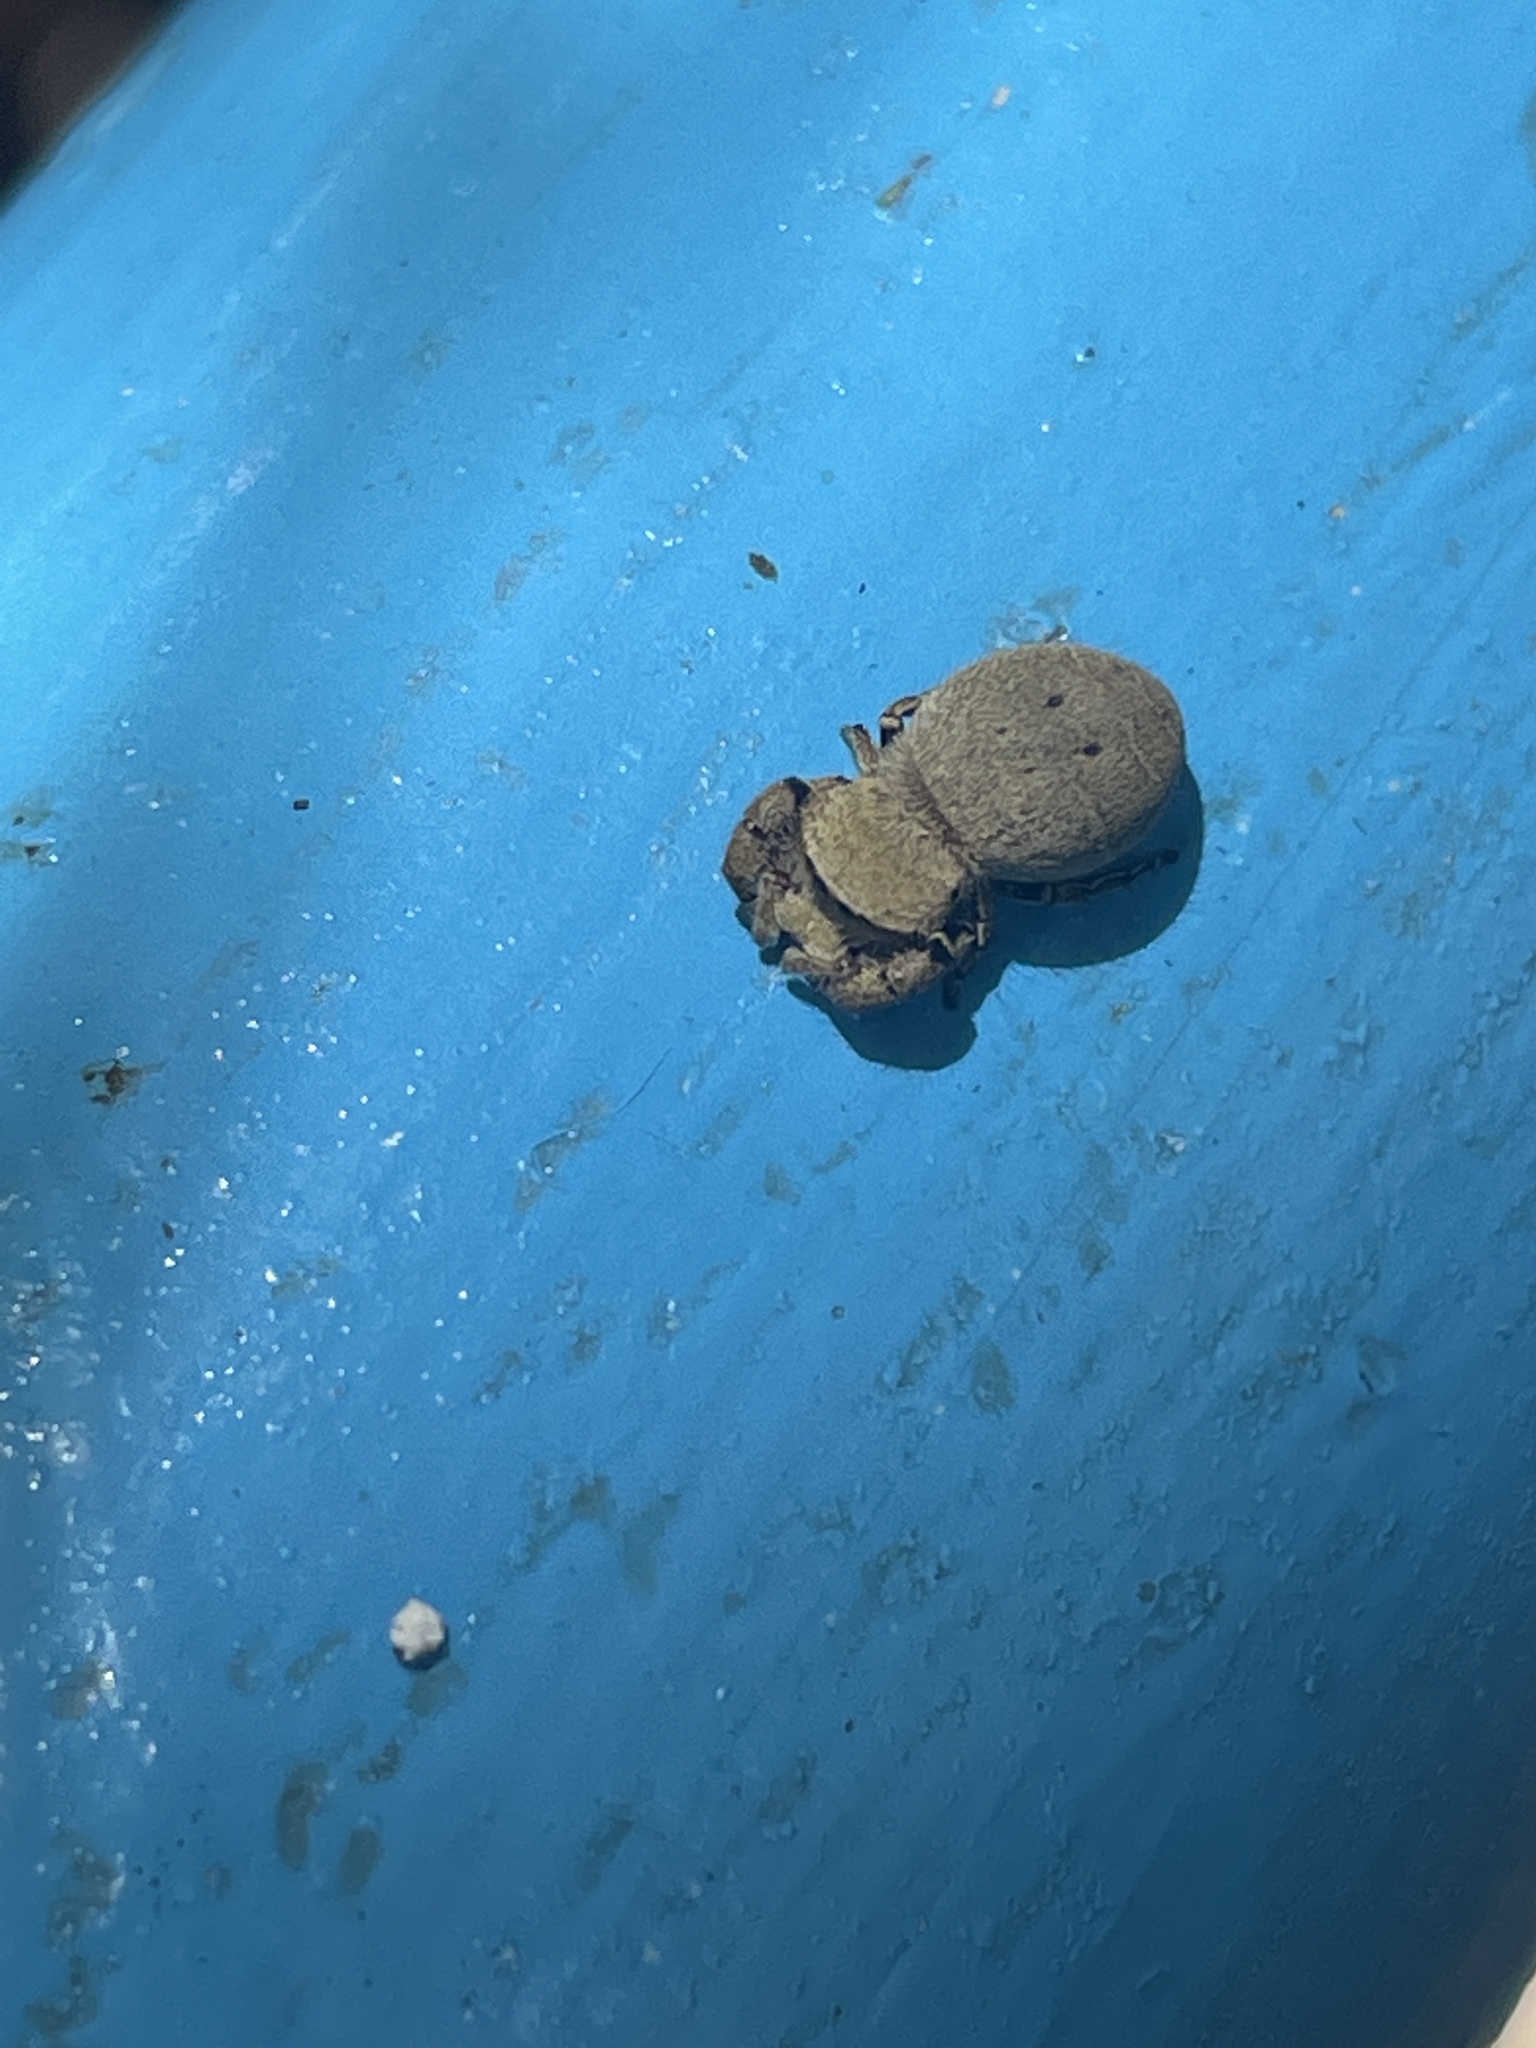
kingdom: Animalia
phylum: Arthropoda
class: Arachnida
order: Araneae
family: Salticidae
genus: Rhene
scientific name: Rhene flavicomans
